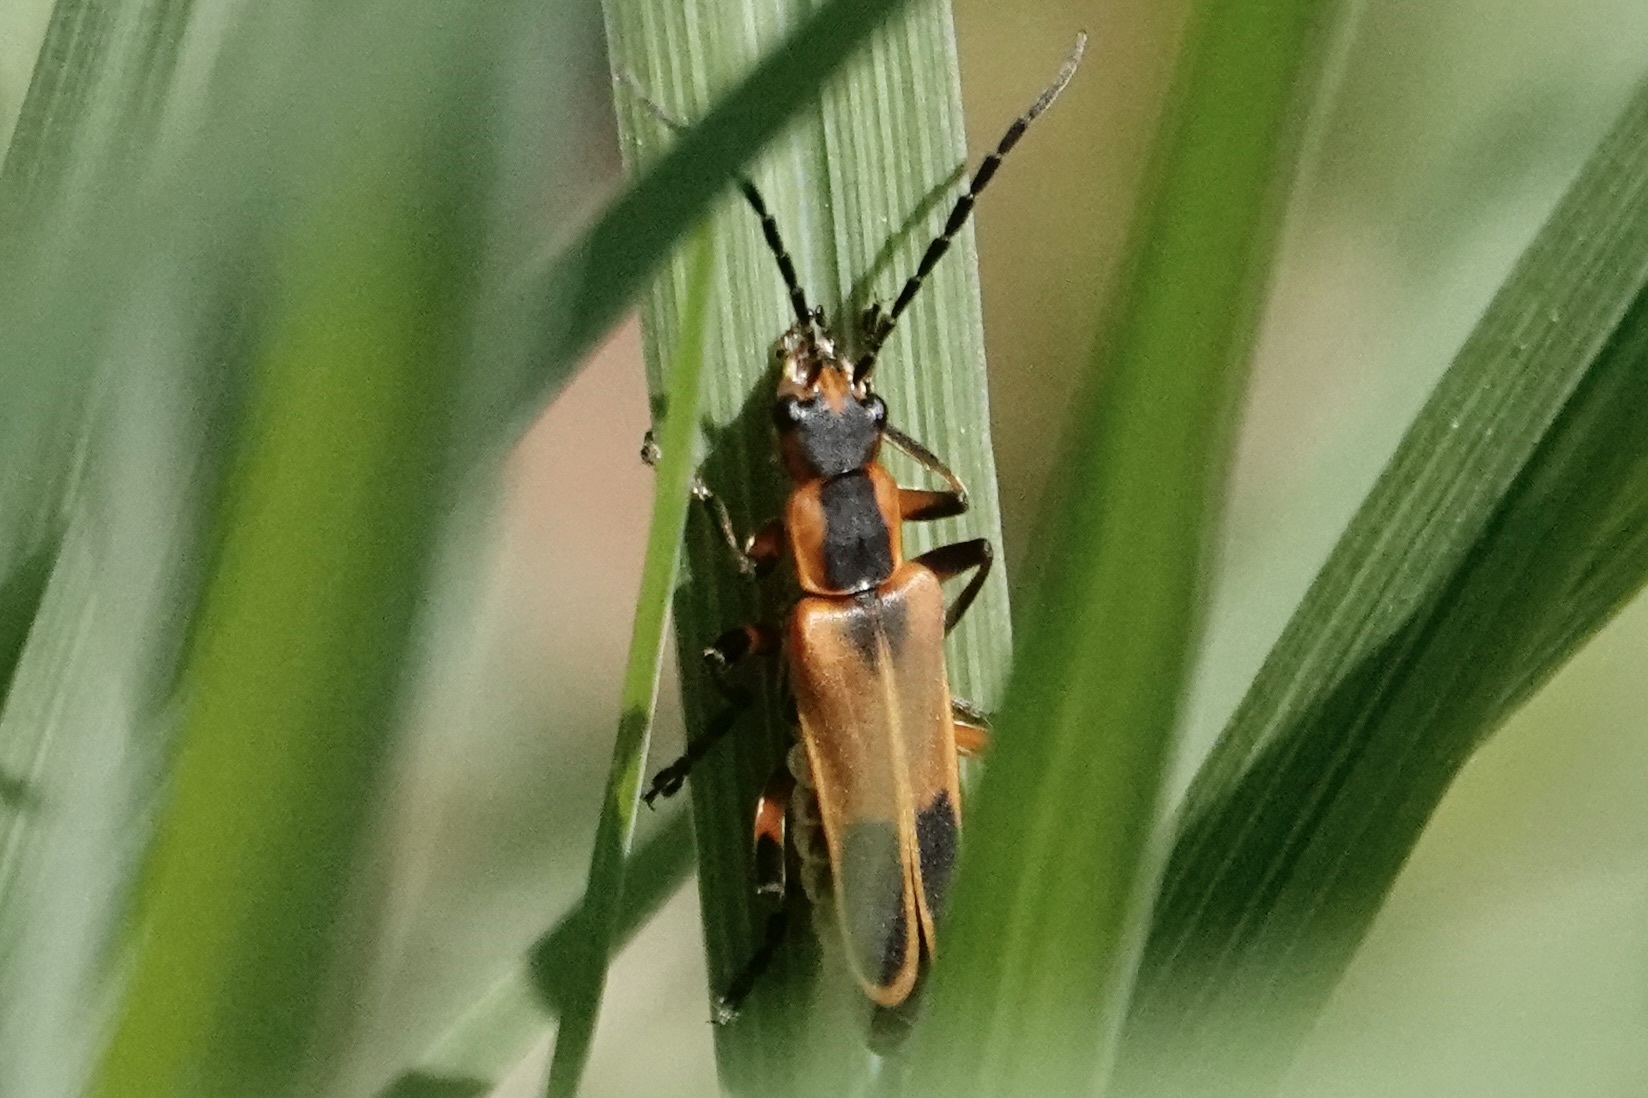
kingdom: Animalia
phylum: Arthropoda
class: Insecta
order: Coleoptera
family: Cantharidae
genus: Chauliognathus
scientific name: Chauliognathus marginatus
